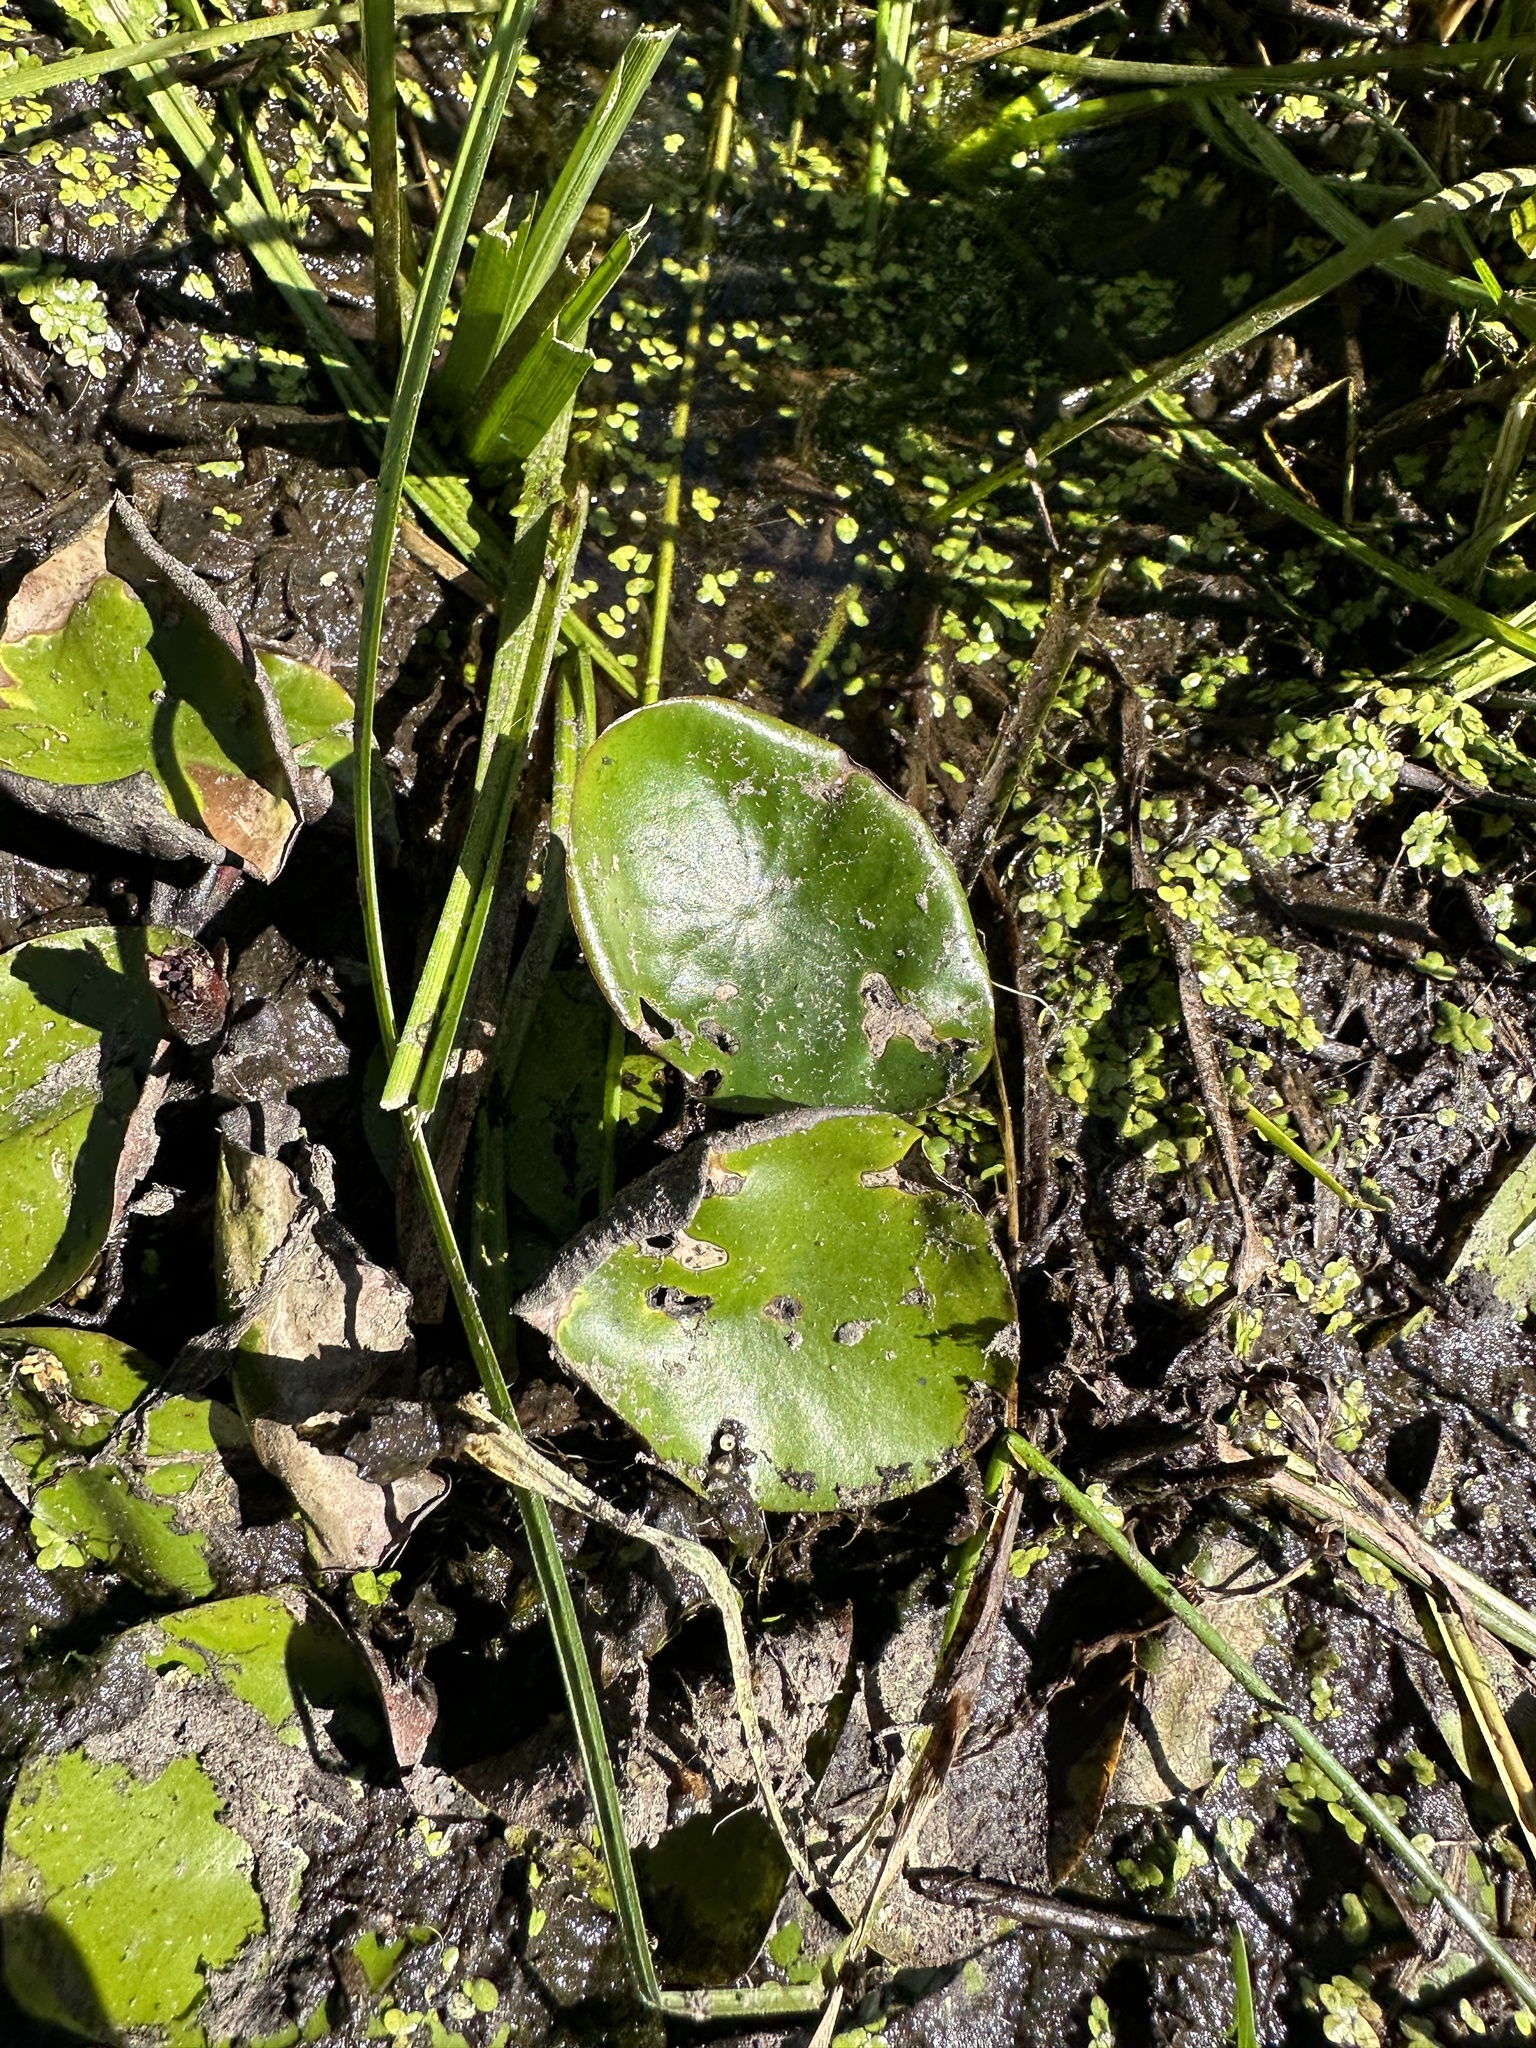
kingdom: Plantae
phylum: Tracheophyta
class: Magnoliopsida
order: Nymphaeales
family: Cabombaceae
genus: Brasenia
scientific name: Brasenia schreberi
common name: Water-shield
